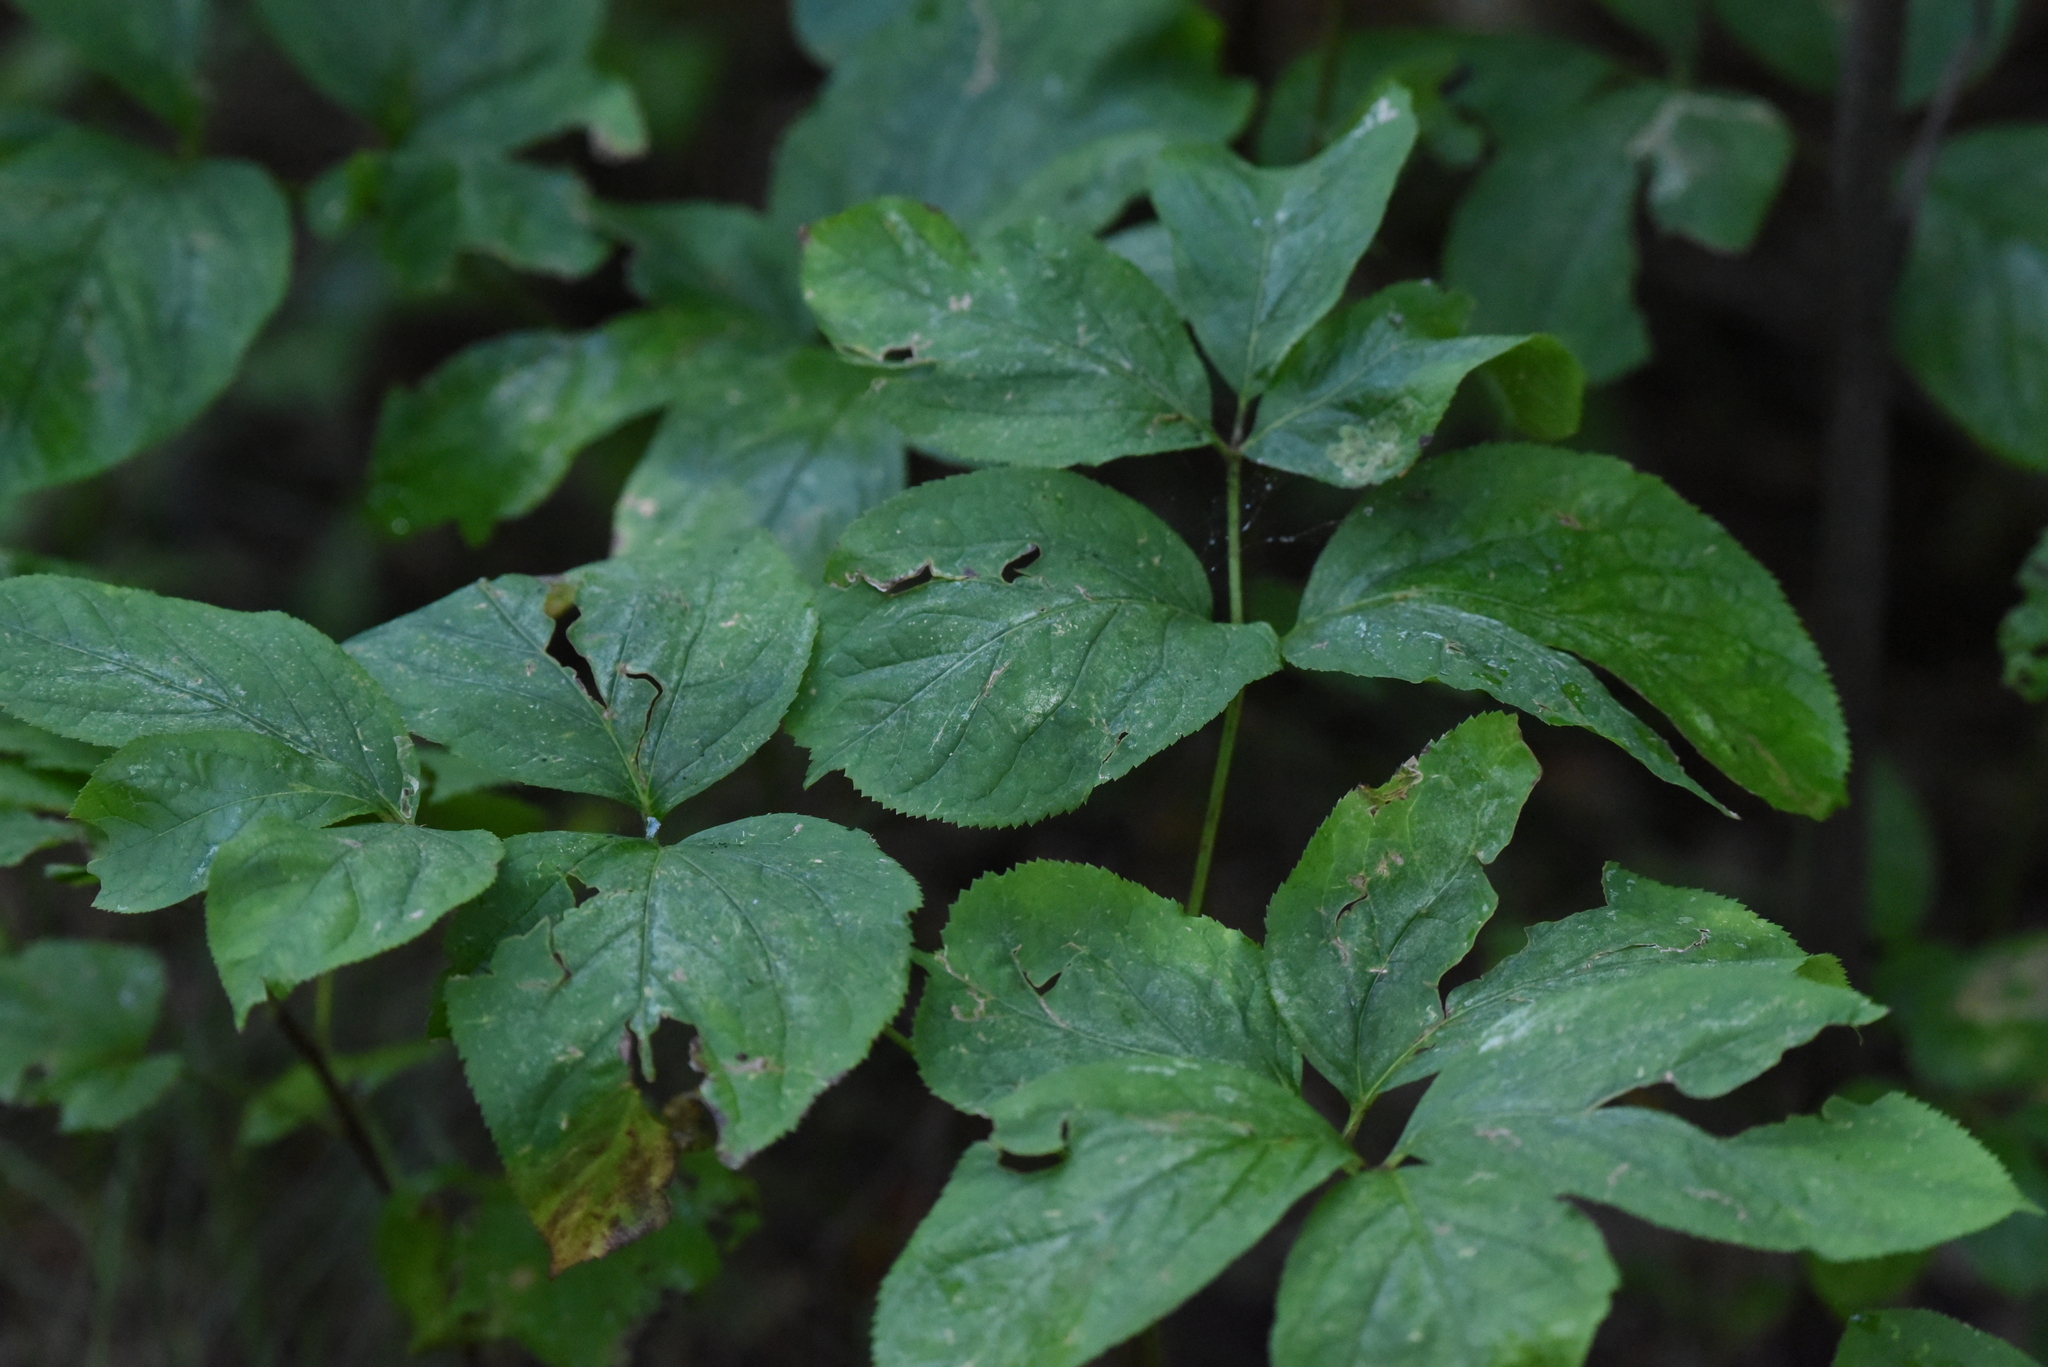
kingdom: Plantae
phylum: Tracheophyta
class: Magnoliopsida
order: Apiales
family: Araliaceae
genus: Aralia
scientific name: Aralia nudicaulis
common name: Wild sarsaparilla
